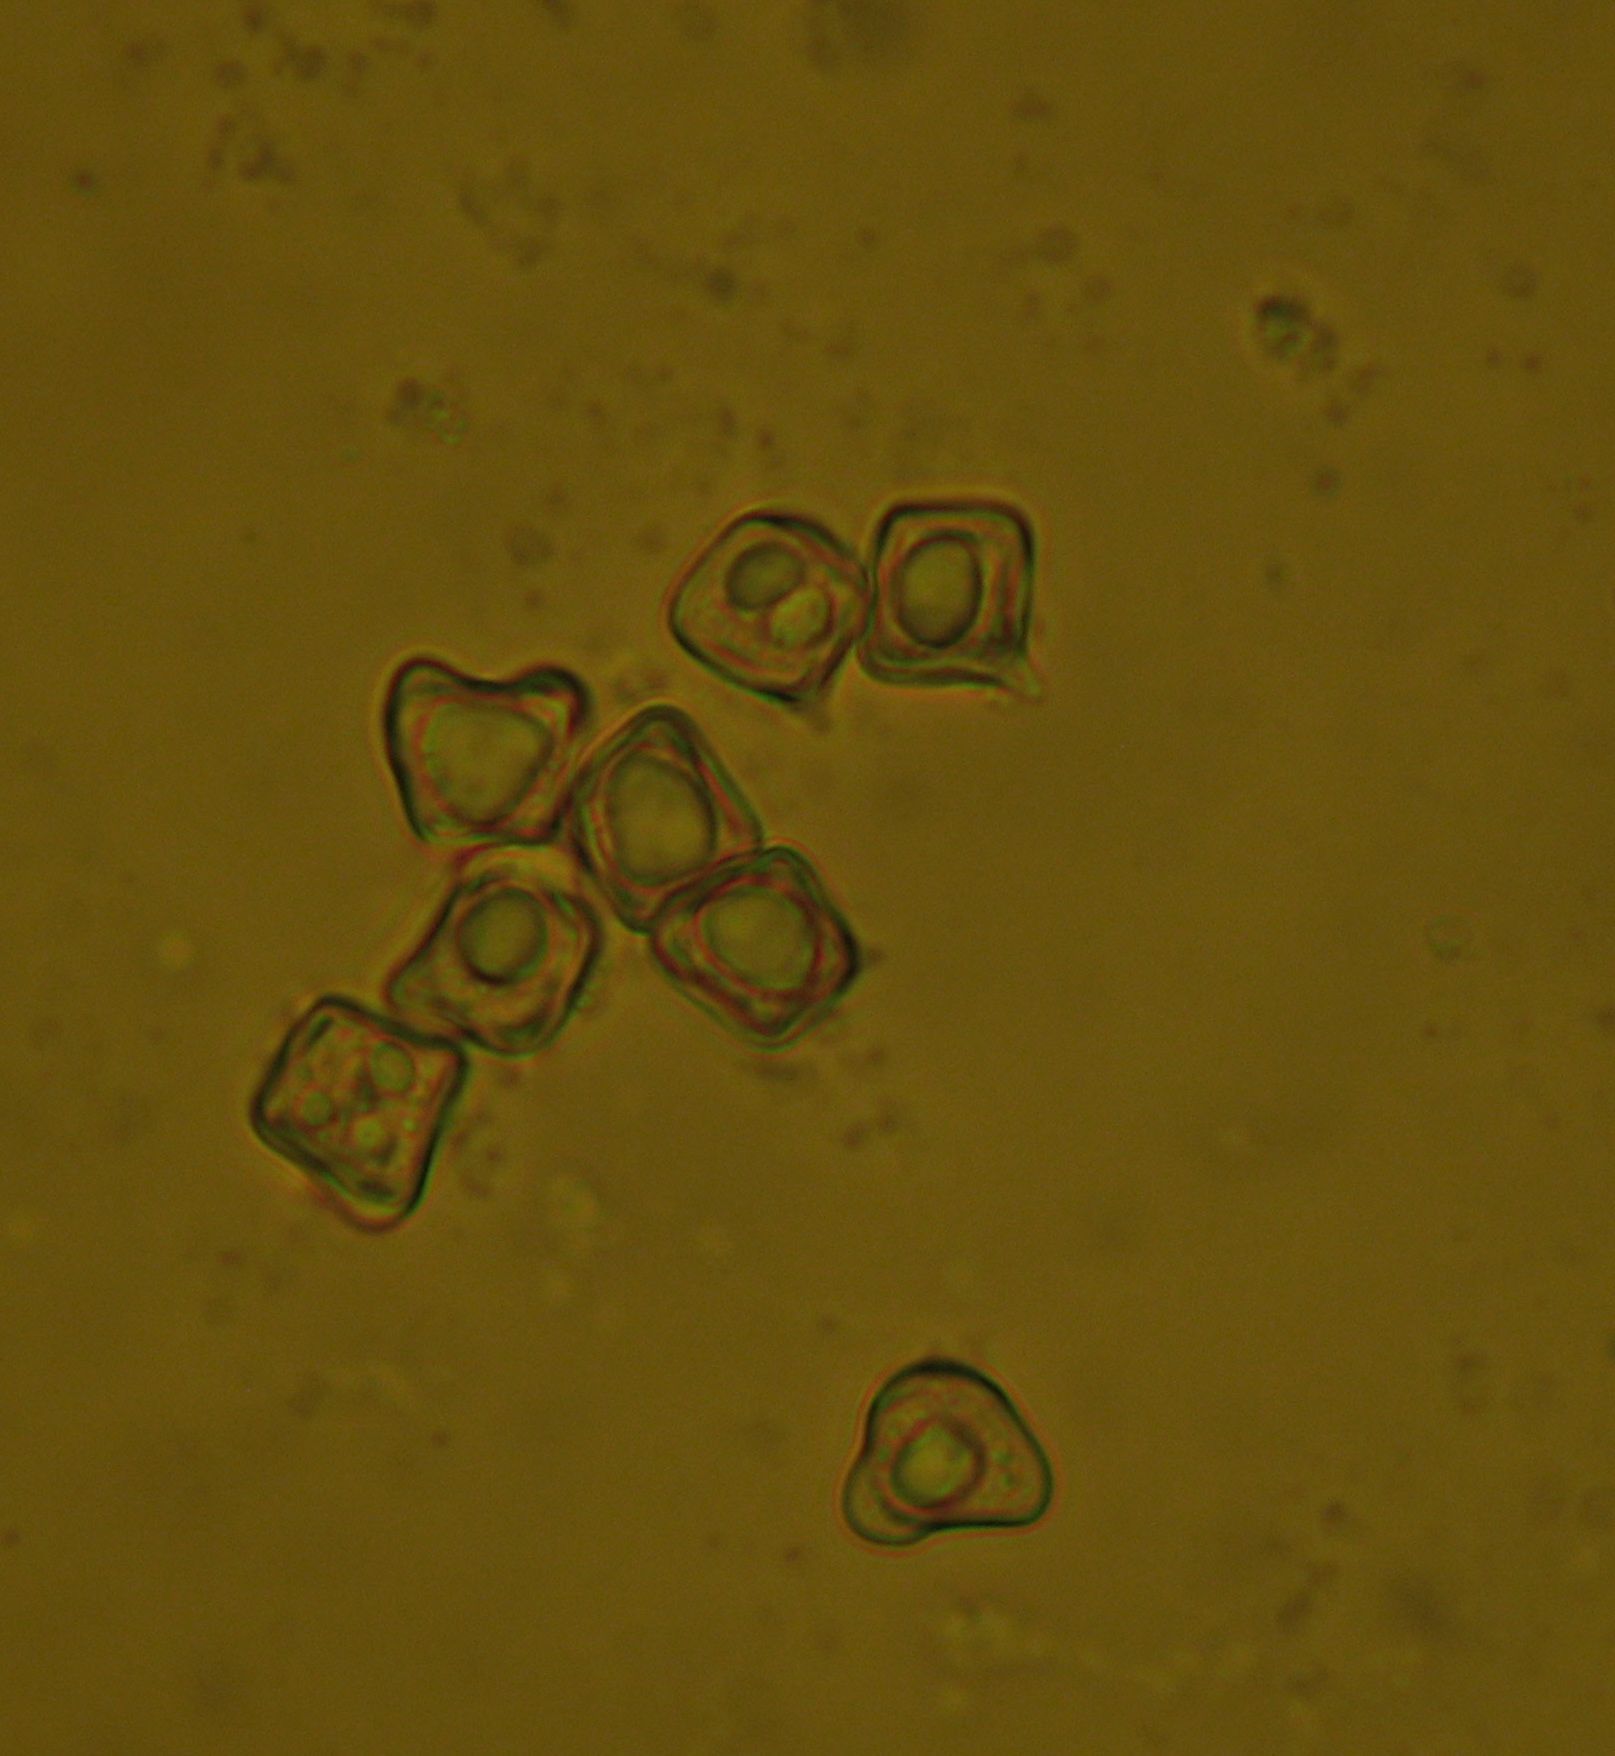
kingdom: Fungi
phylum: Basidiomycota
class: Agaricomycetes
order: Agaricales
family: Entolomataceae
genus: Entoloma
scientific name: Entoloma hochstetteri
